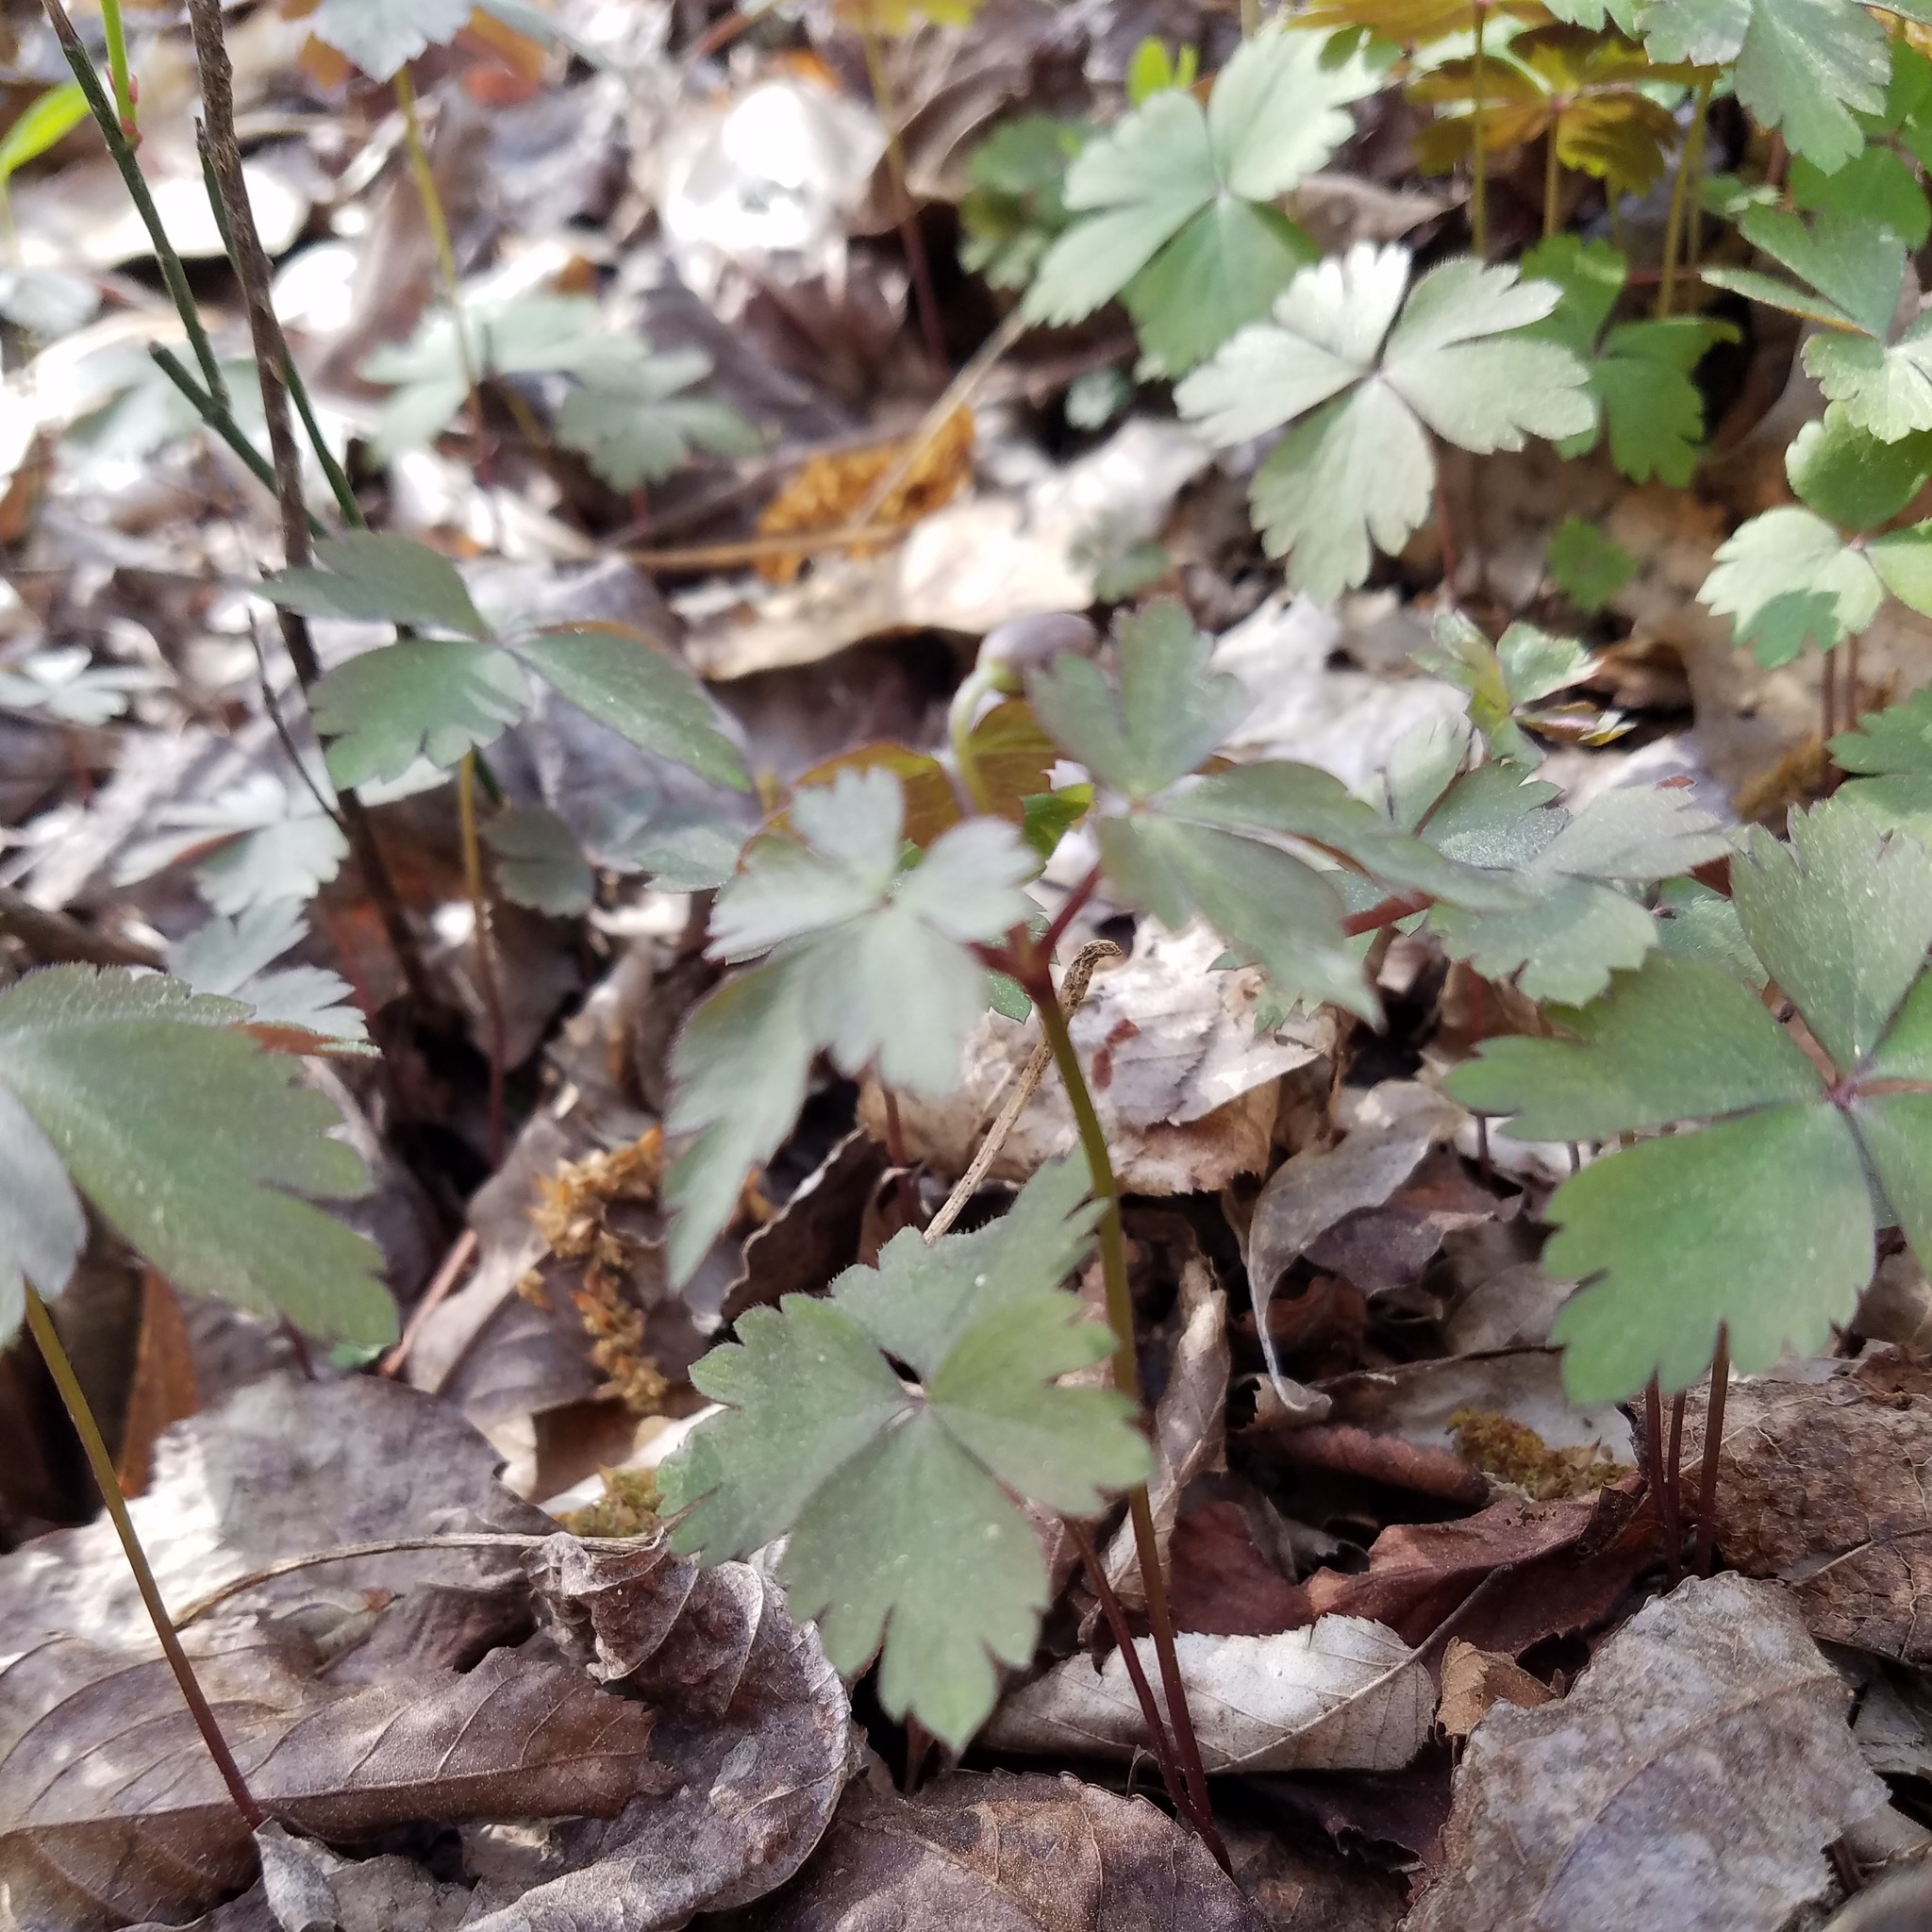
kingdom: Plantae
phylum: Tracheophyta
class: Magnoliopsida
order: Ranunculales
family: Ranunculaceae
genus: Anemone
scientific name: Anemone quinquefolia
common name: Wood anemone
